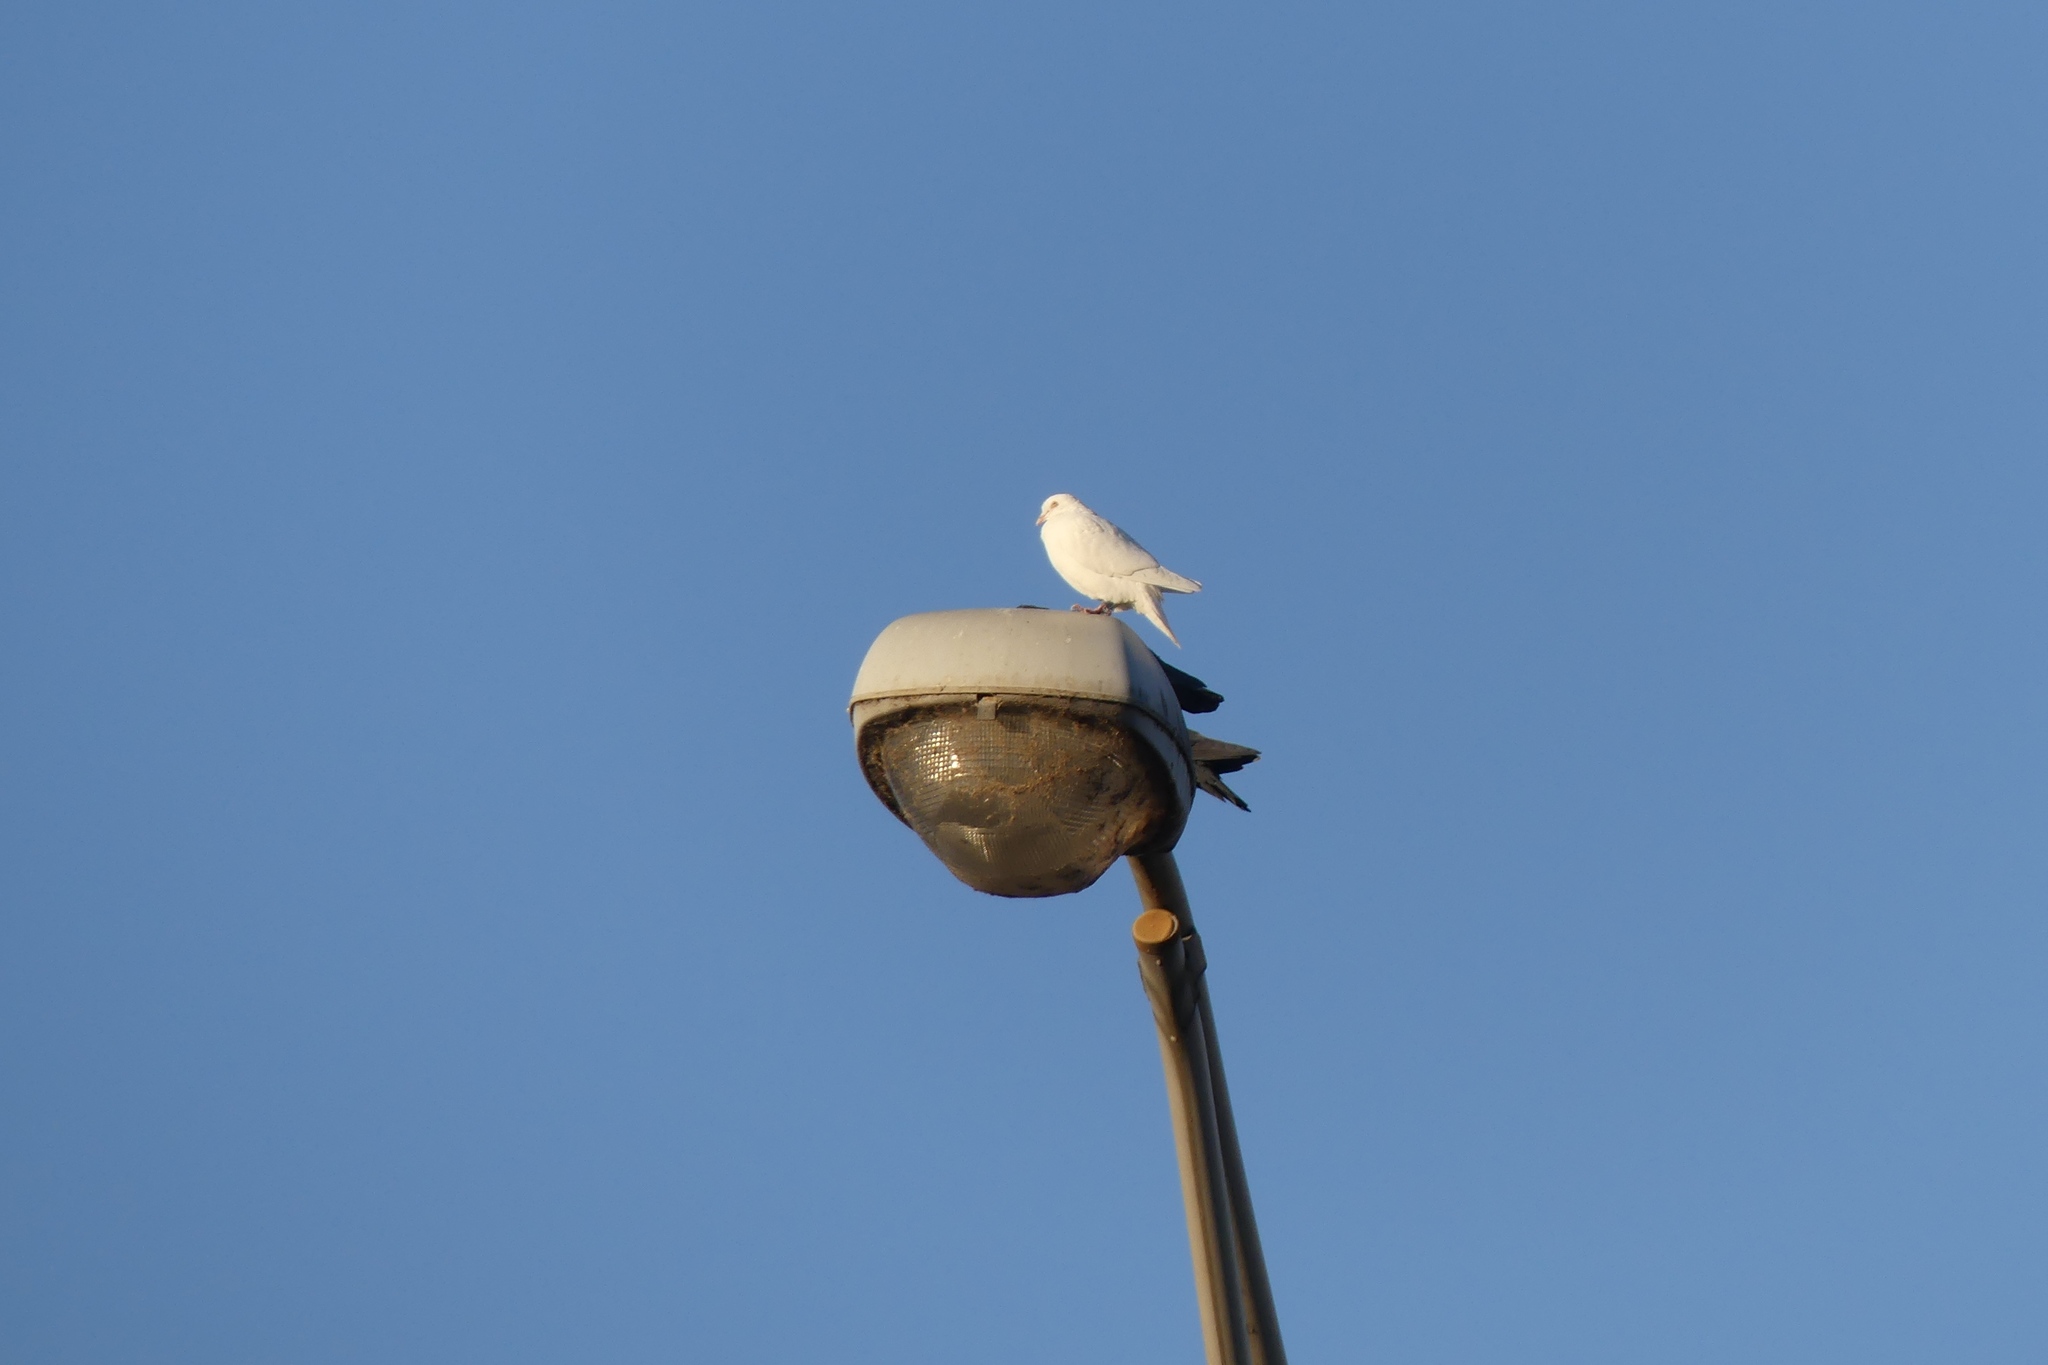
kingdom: Animalia
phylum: Chordata
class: Aves
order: Columbiformes
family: Columbidae
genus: Columba
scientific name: Columba livia
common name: Rock pigeon
